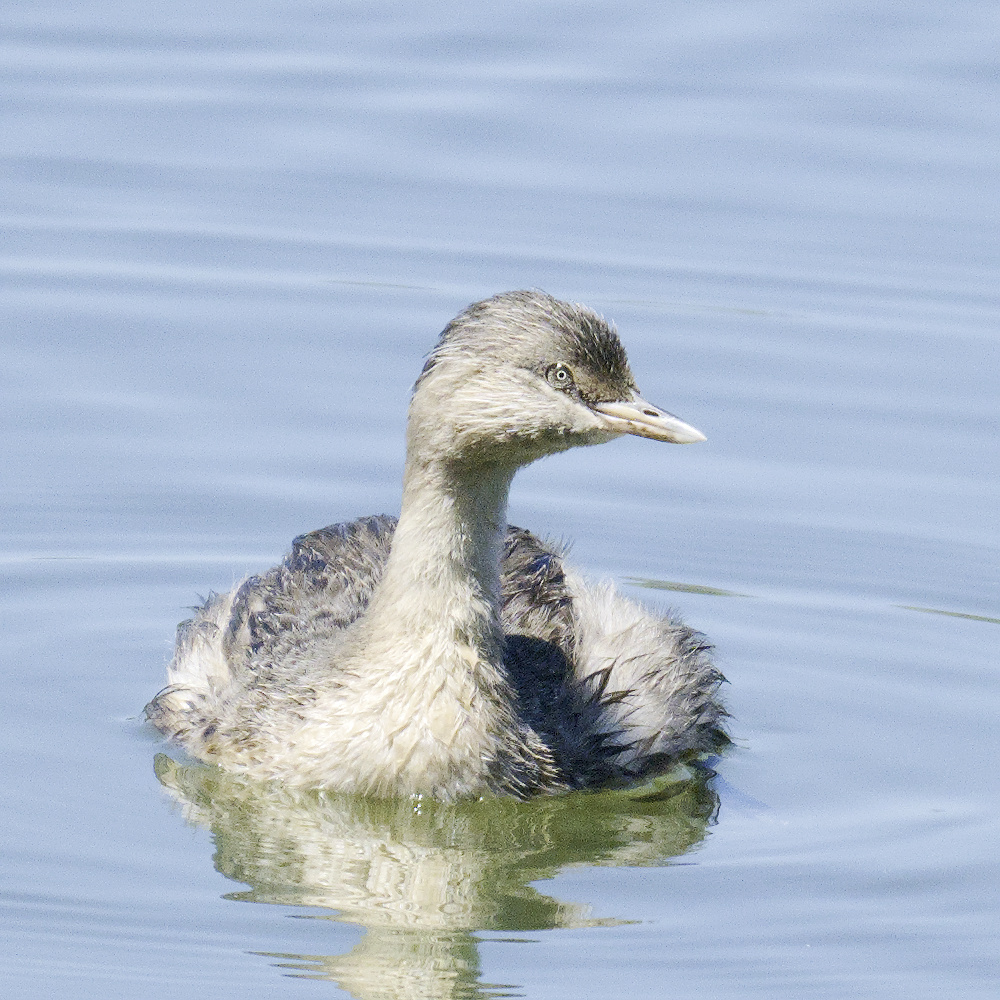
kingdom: Animalia
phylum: Chordata
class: Aves
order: Podicipediformes
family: Podicipedidae
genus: Poliocephalus
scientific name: Poliocephalus poliocephalus
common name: Hoary-headed grebe
